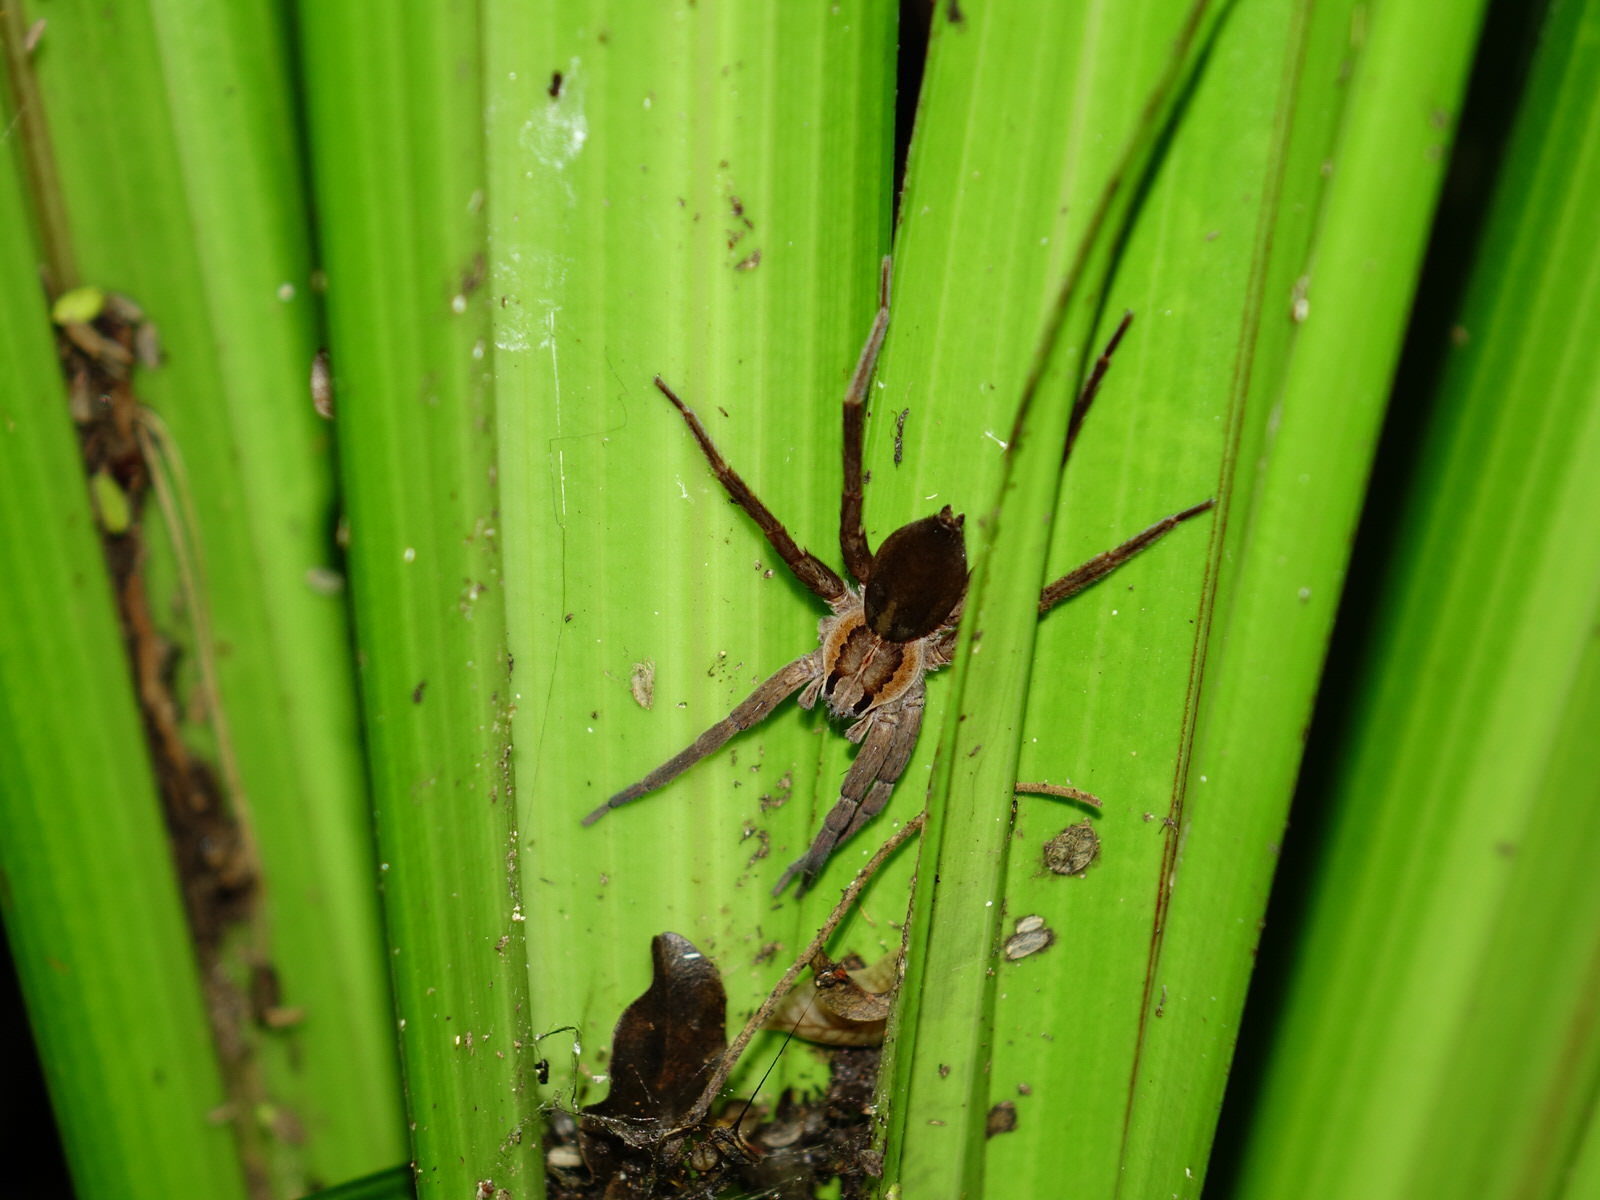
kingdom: Animalia
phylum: Arthropoda
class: Arachnida
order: Araneae
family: Pisauridae
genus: Dolomedes
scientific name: Dolomedes minor
